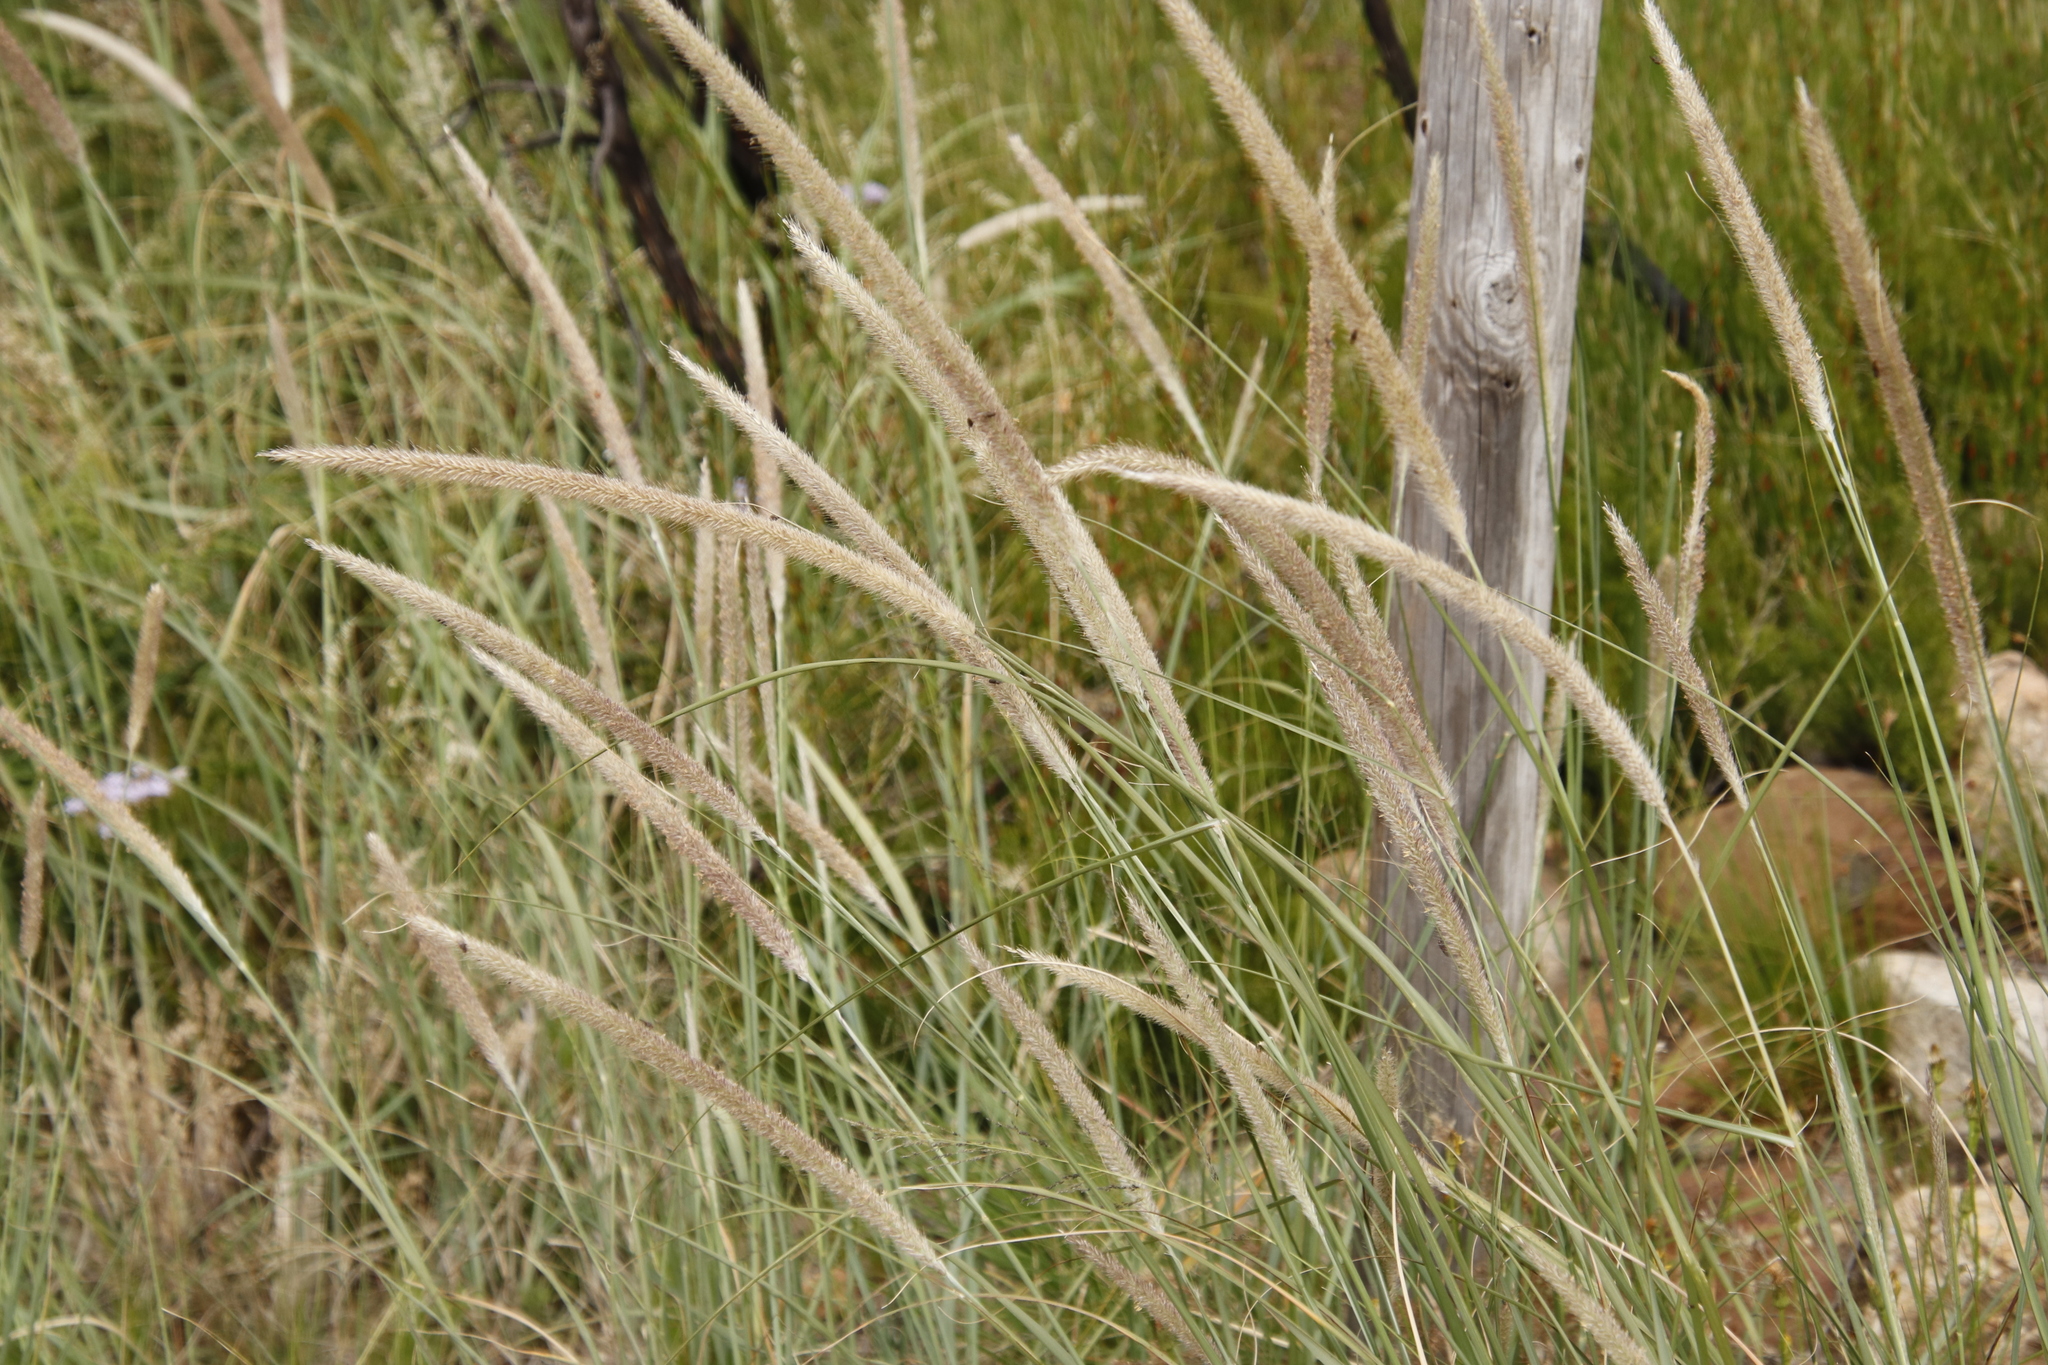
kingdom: Plantae
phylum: Tracheophyta
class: Liliopsida
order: Poales
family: Poaceae
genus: Cenchrus
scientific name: Cenchrus caudatus
